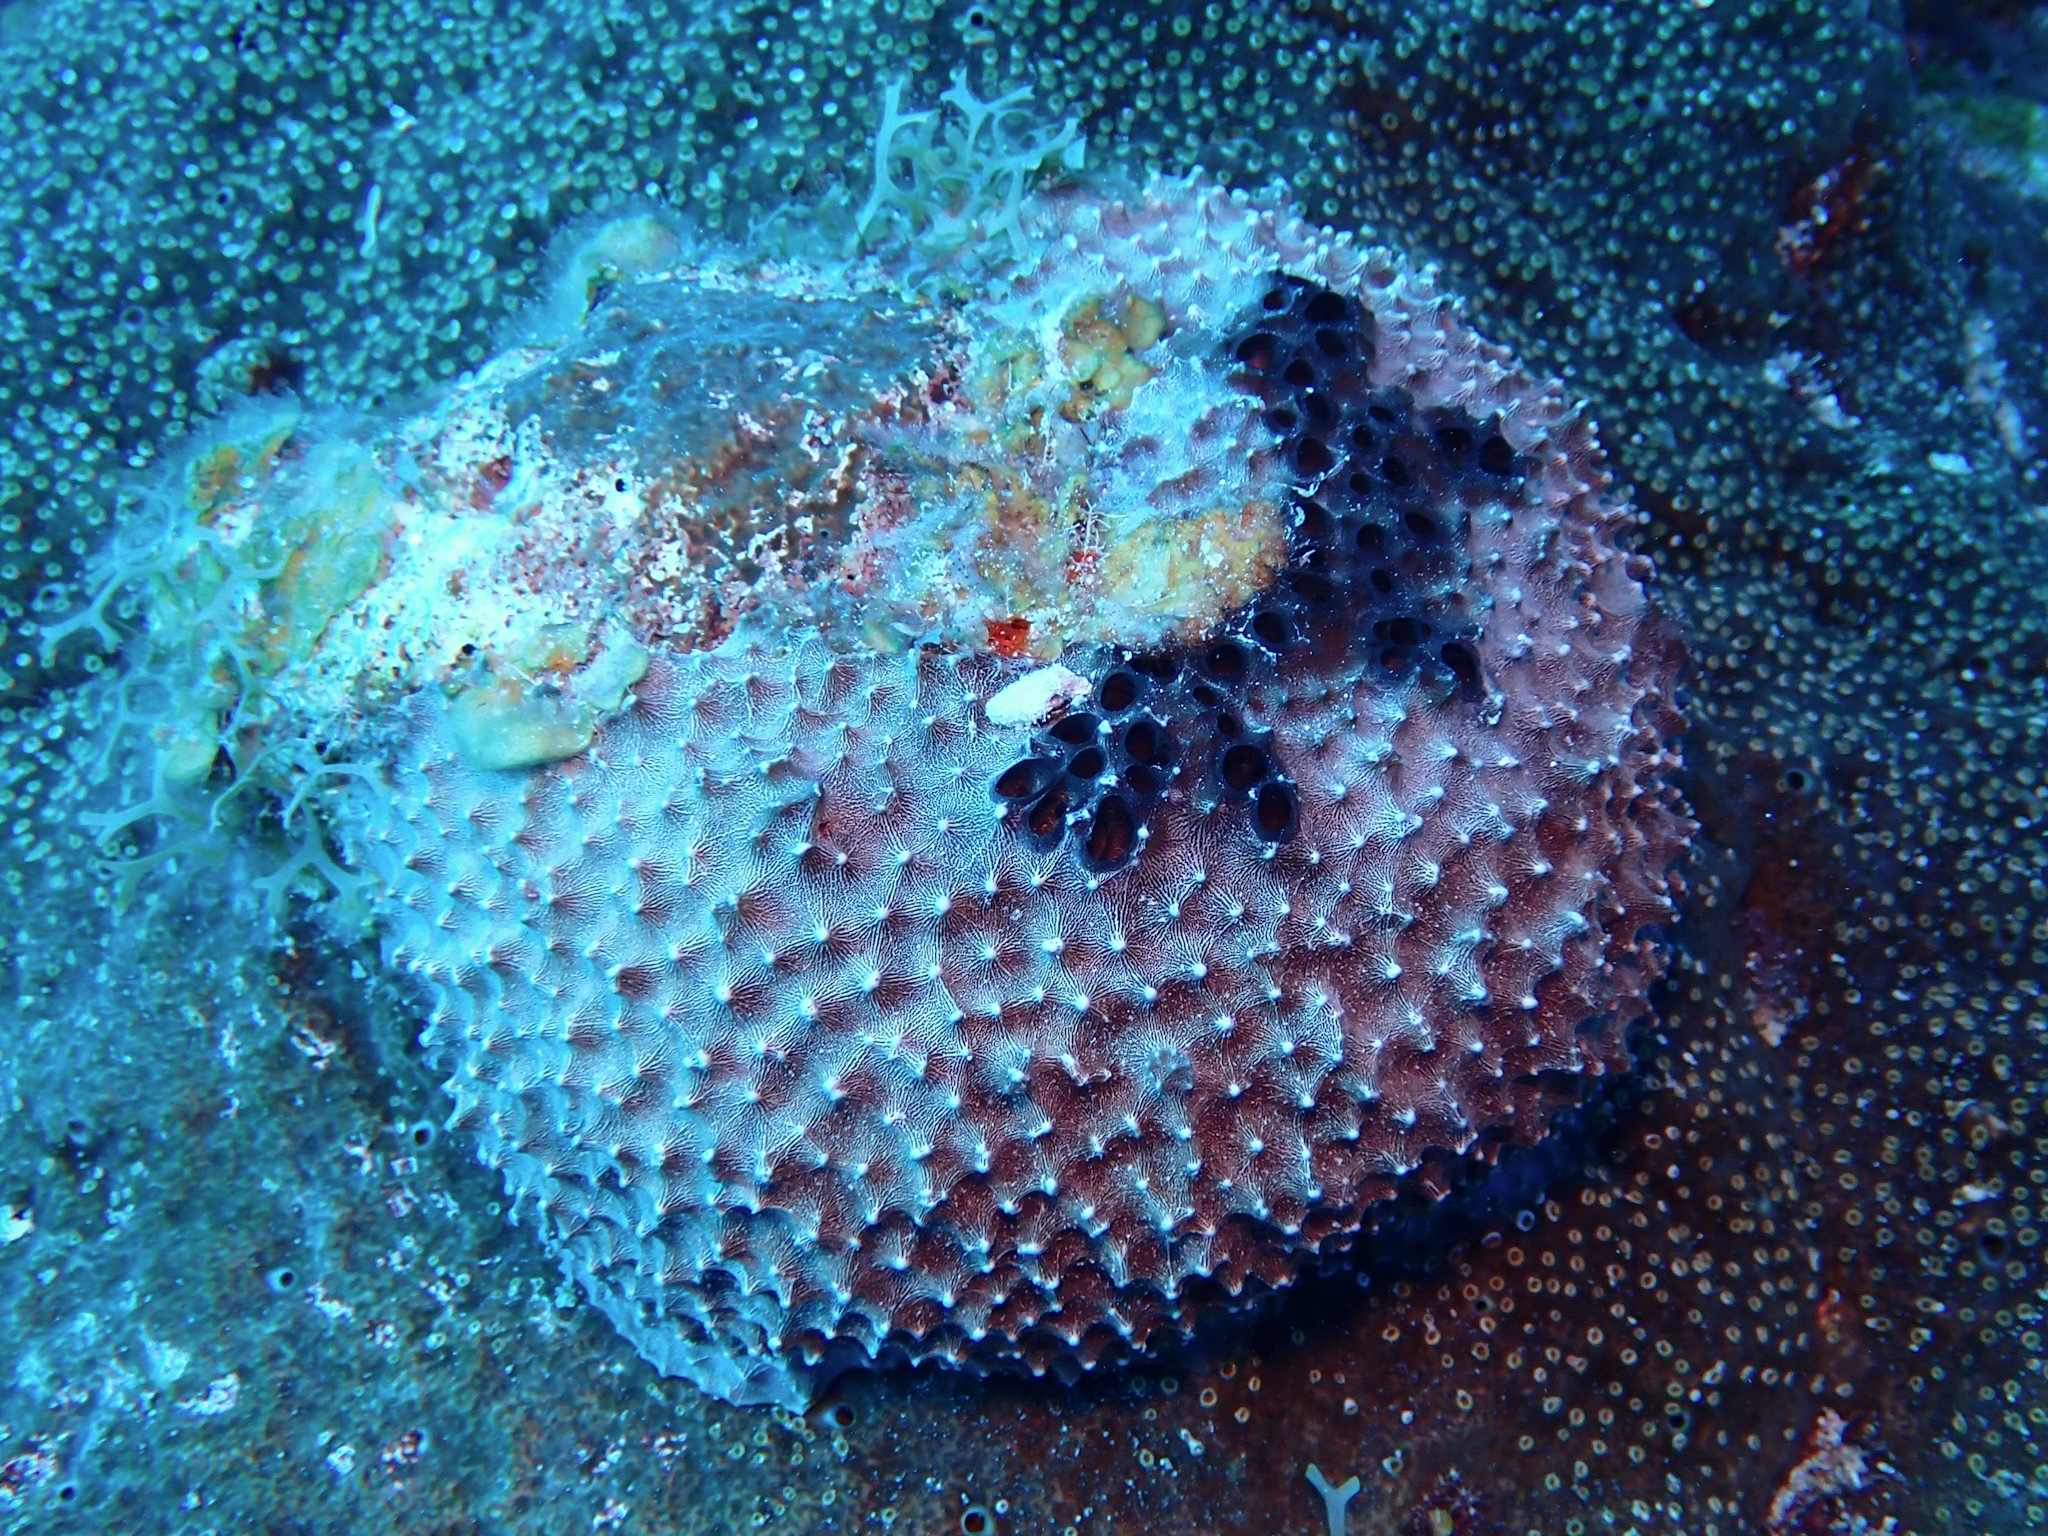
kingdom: Animalia
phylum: Porifera
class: Demospongiae
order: Dictyoceratida
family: Irciniidae
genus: Ircinia
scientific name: Ircinia felix
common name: Stinker sponge
